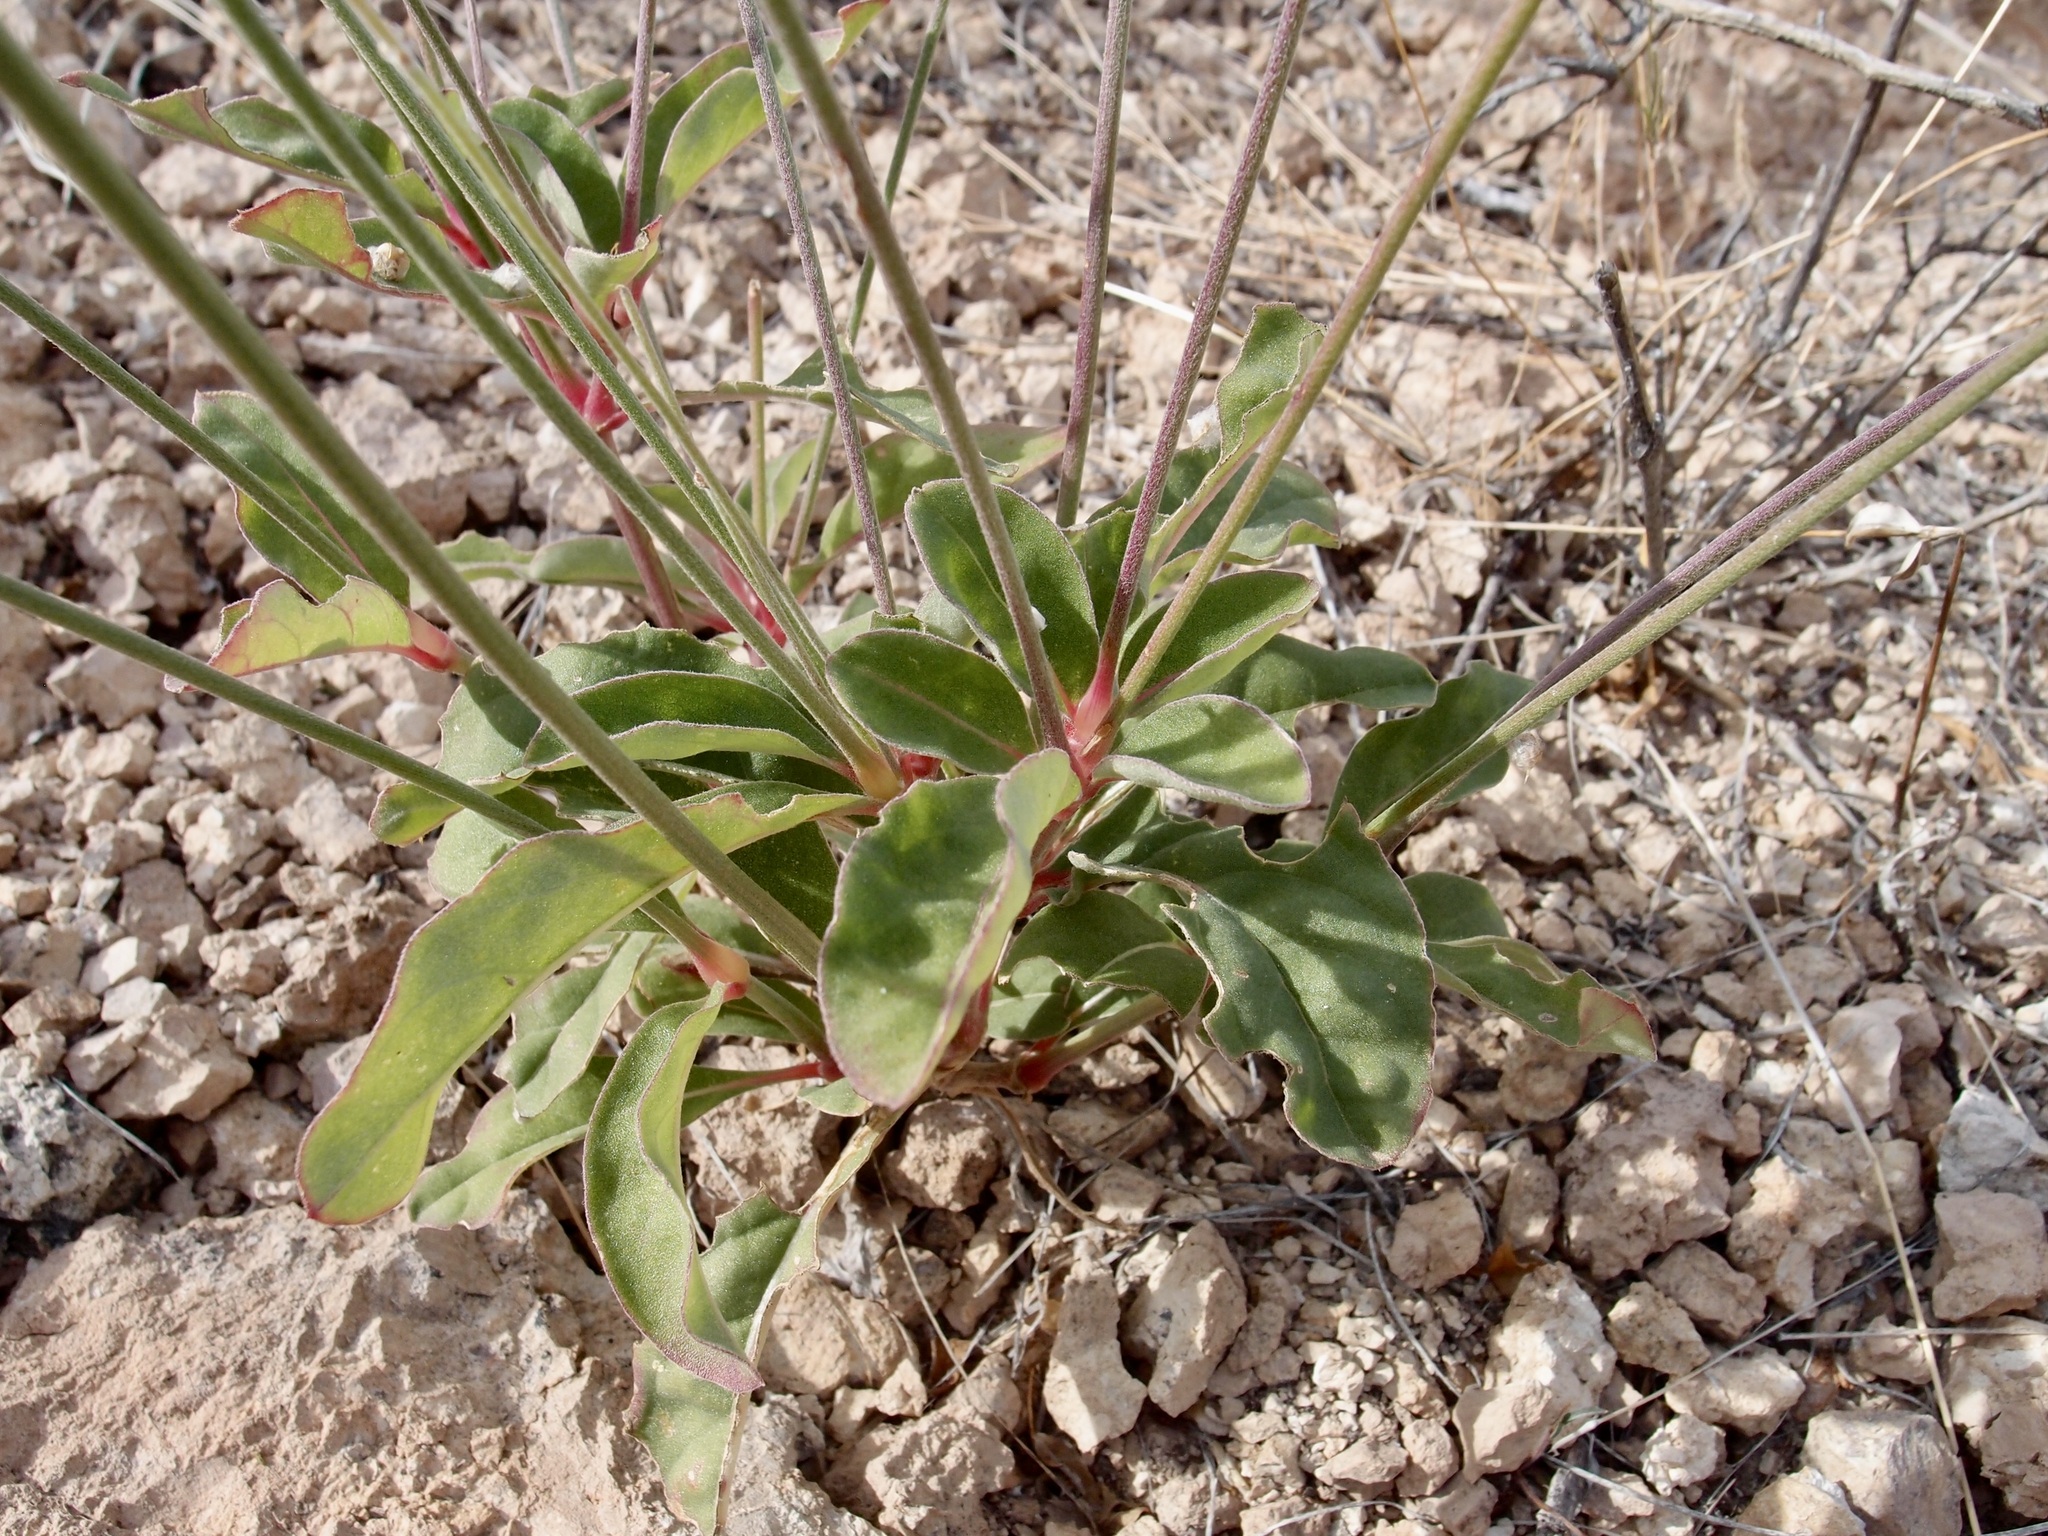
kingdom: Plantae
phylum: Tracheophyta
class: Magnoliopsida
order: Caryophyllales
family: Amaranthaceae
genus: Froelichia
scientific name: Froelichia interrupta
